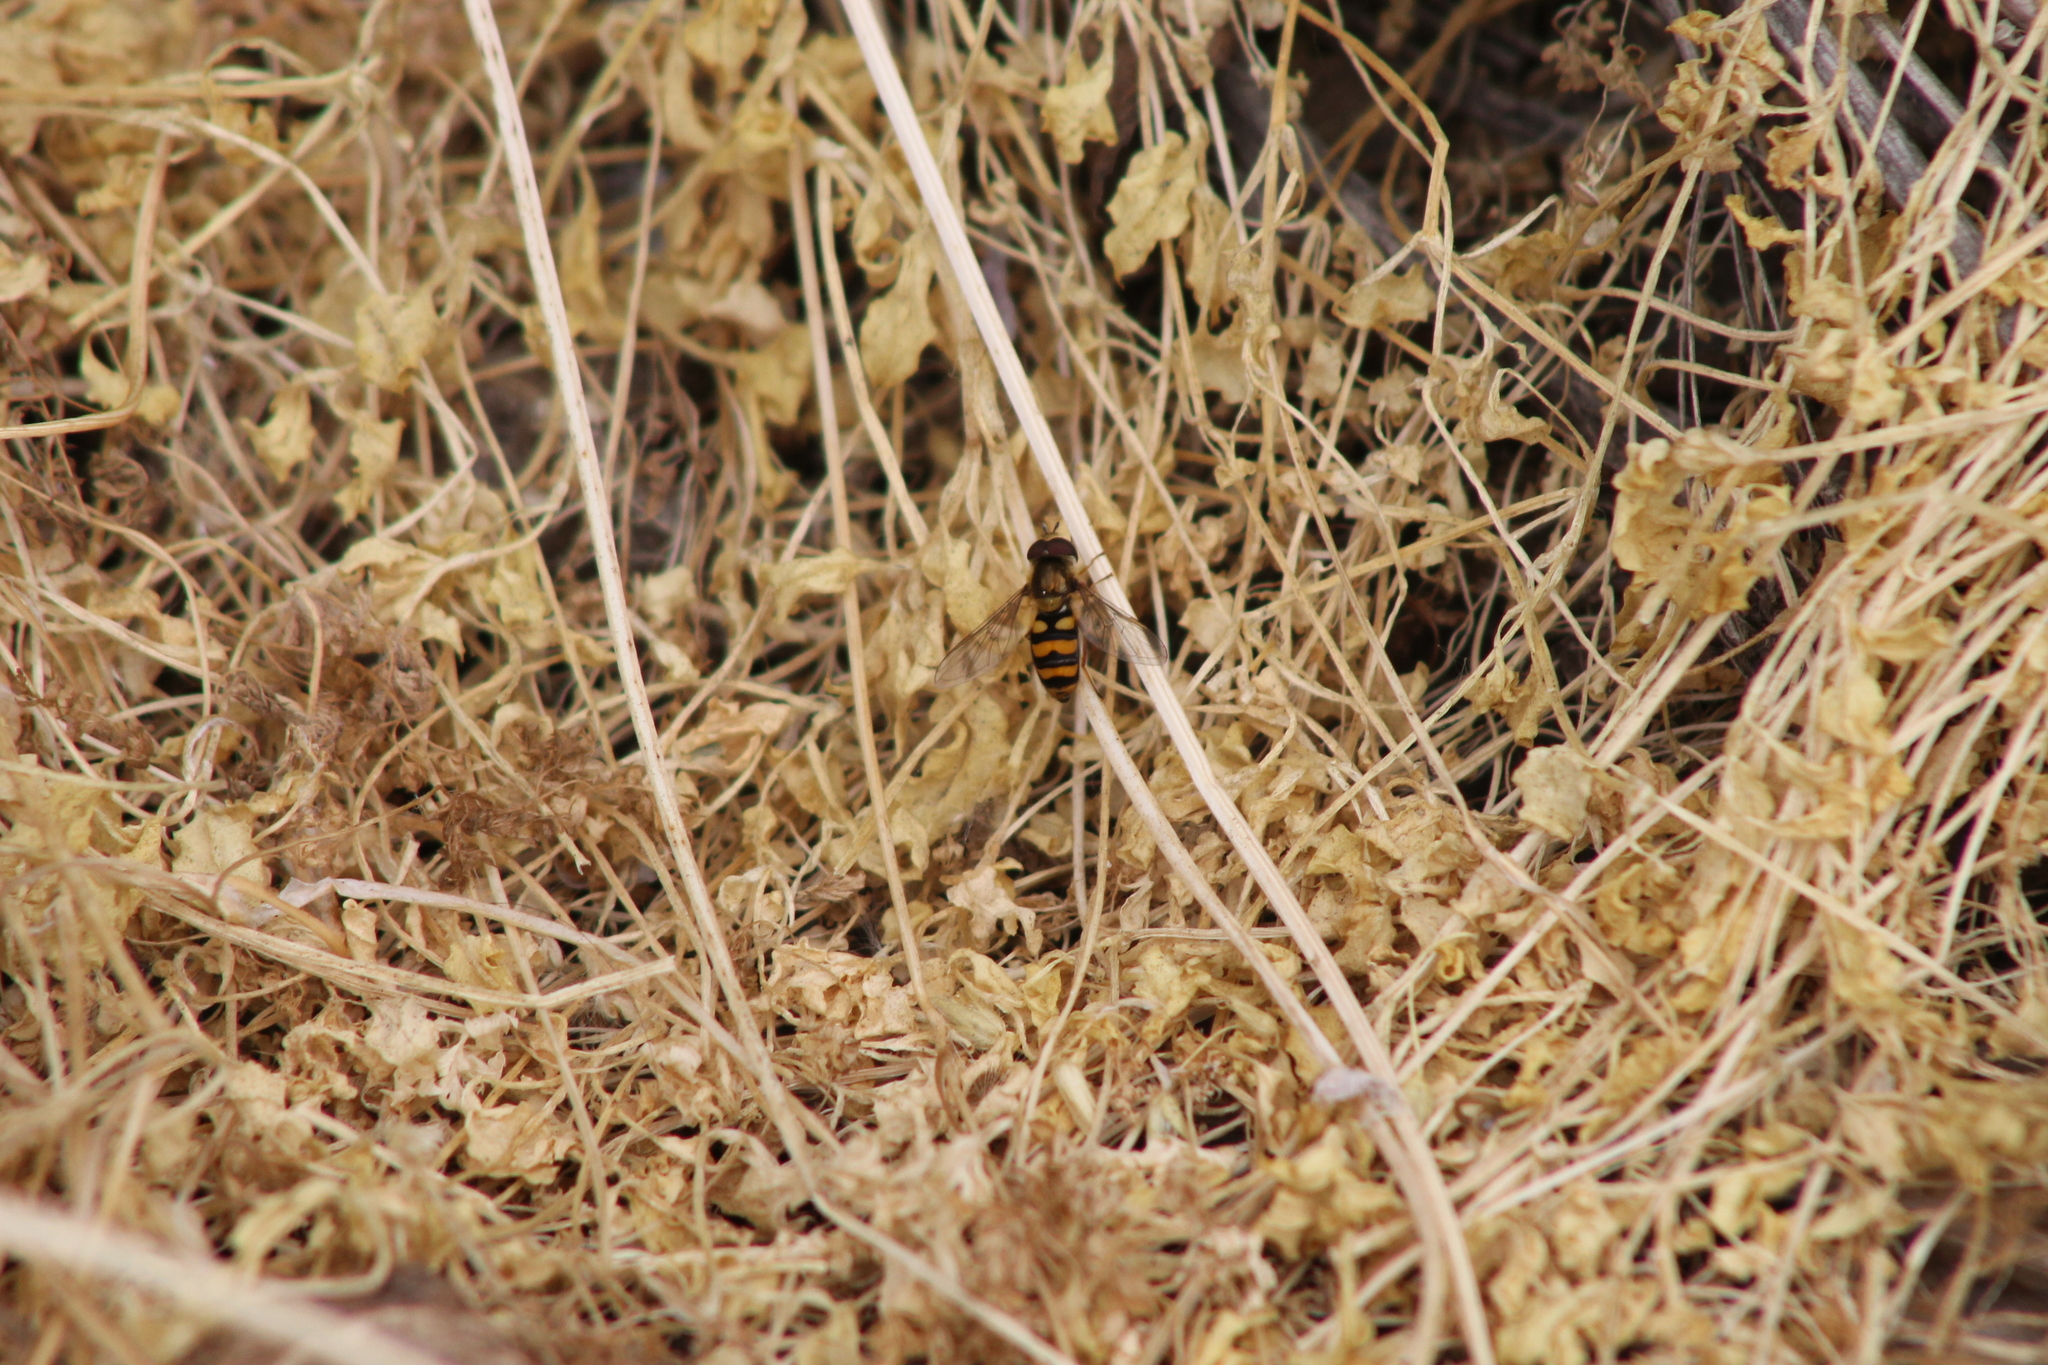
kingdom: Animalia
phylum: Arthropoda
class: Insecta
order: Diptera
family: Syrphidae
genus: Eupeodes
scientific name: Eupeodes fumipennis
